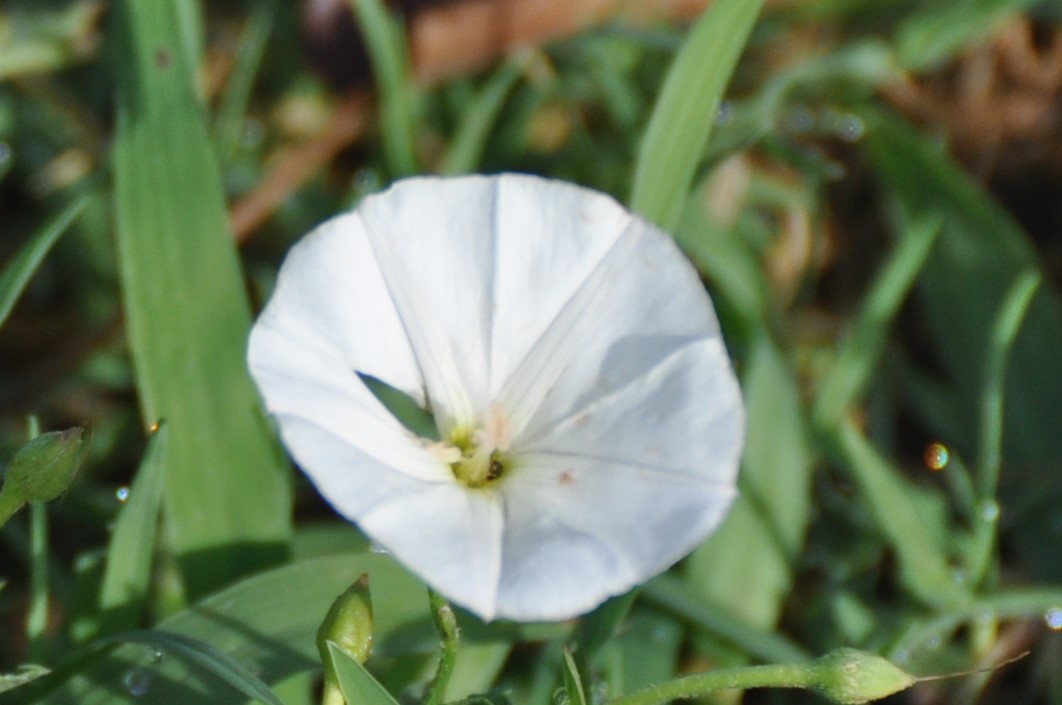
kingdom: Plantae
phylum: Tracheophyta
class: Magnoliopsida
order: Solanales
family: Convolvulaceae
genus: Convolvulus
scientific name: Convolvulus arvensis
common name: Field bindweed
